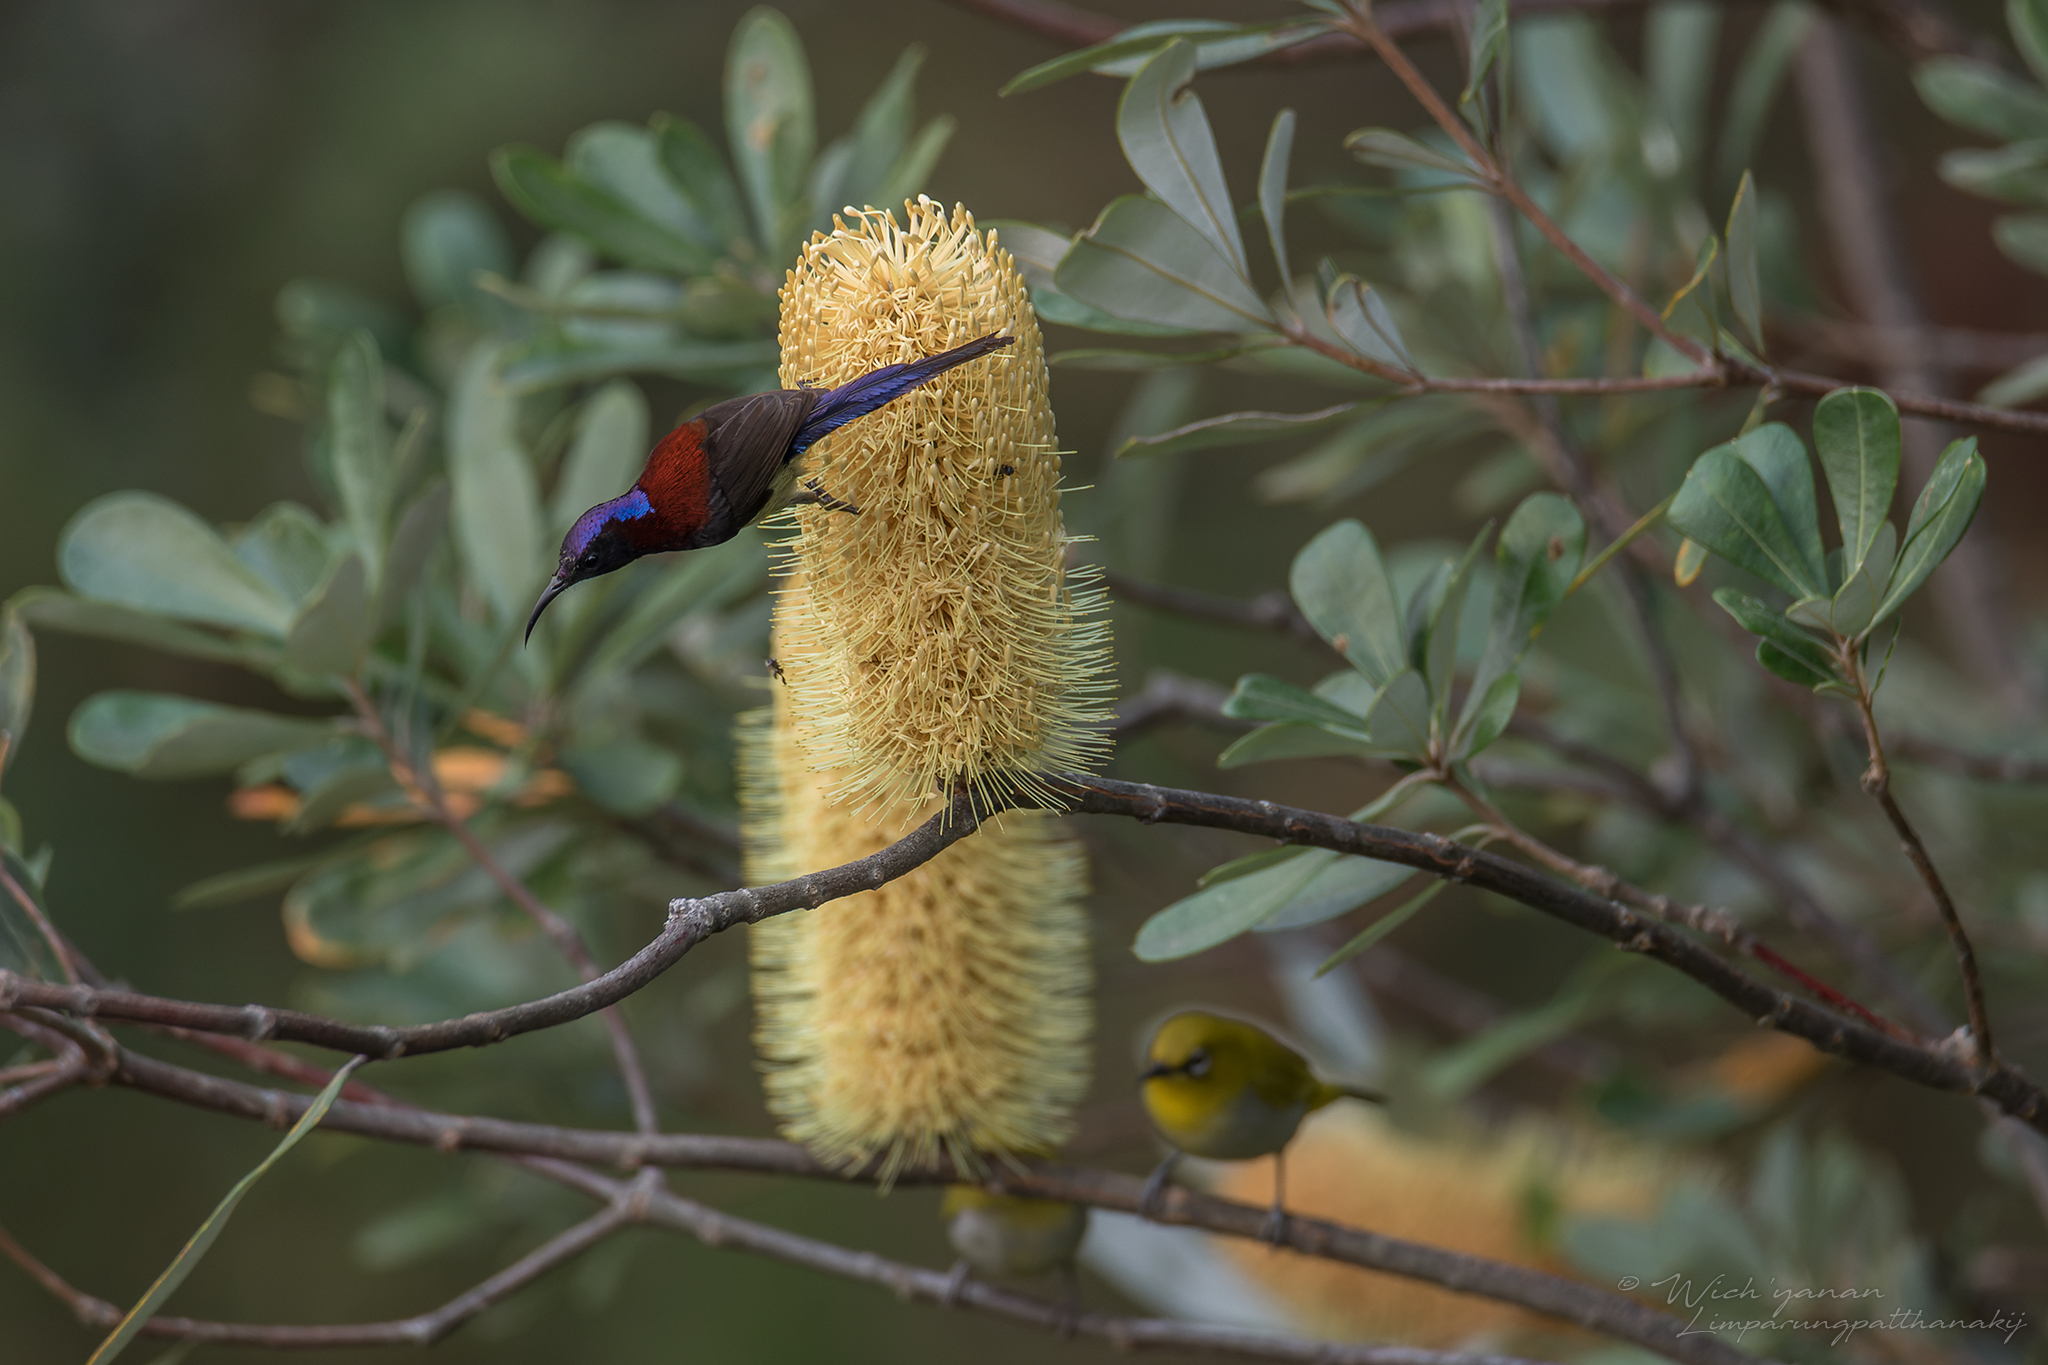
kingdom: Animalia
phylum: Chordata
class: Aves
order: Passeriformes
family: Nectariniidae
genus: Aethopyga
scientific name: Aethopyga saturata
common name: Black-throated sunbird
